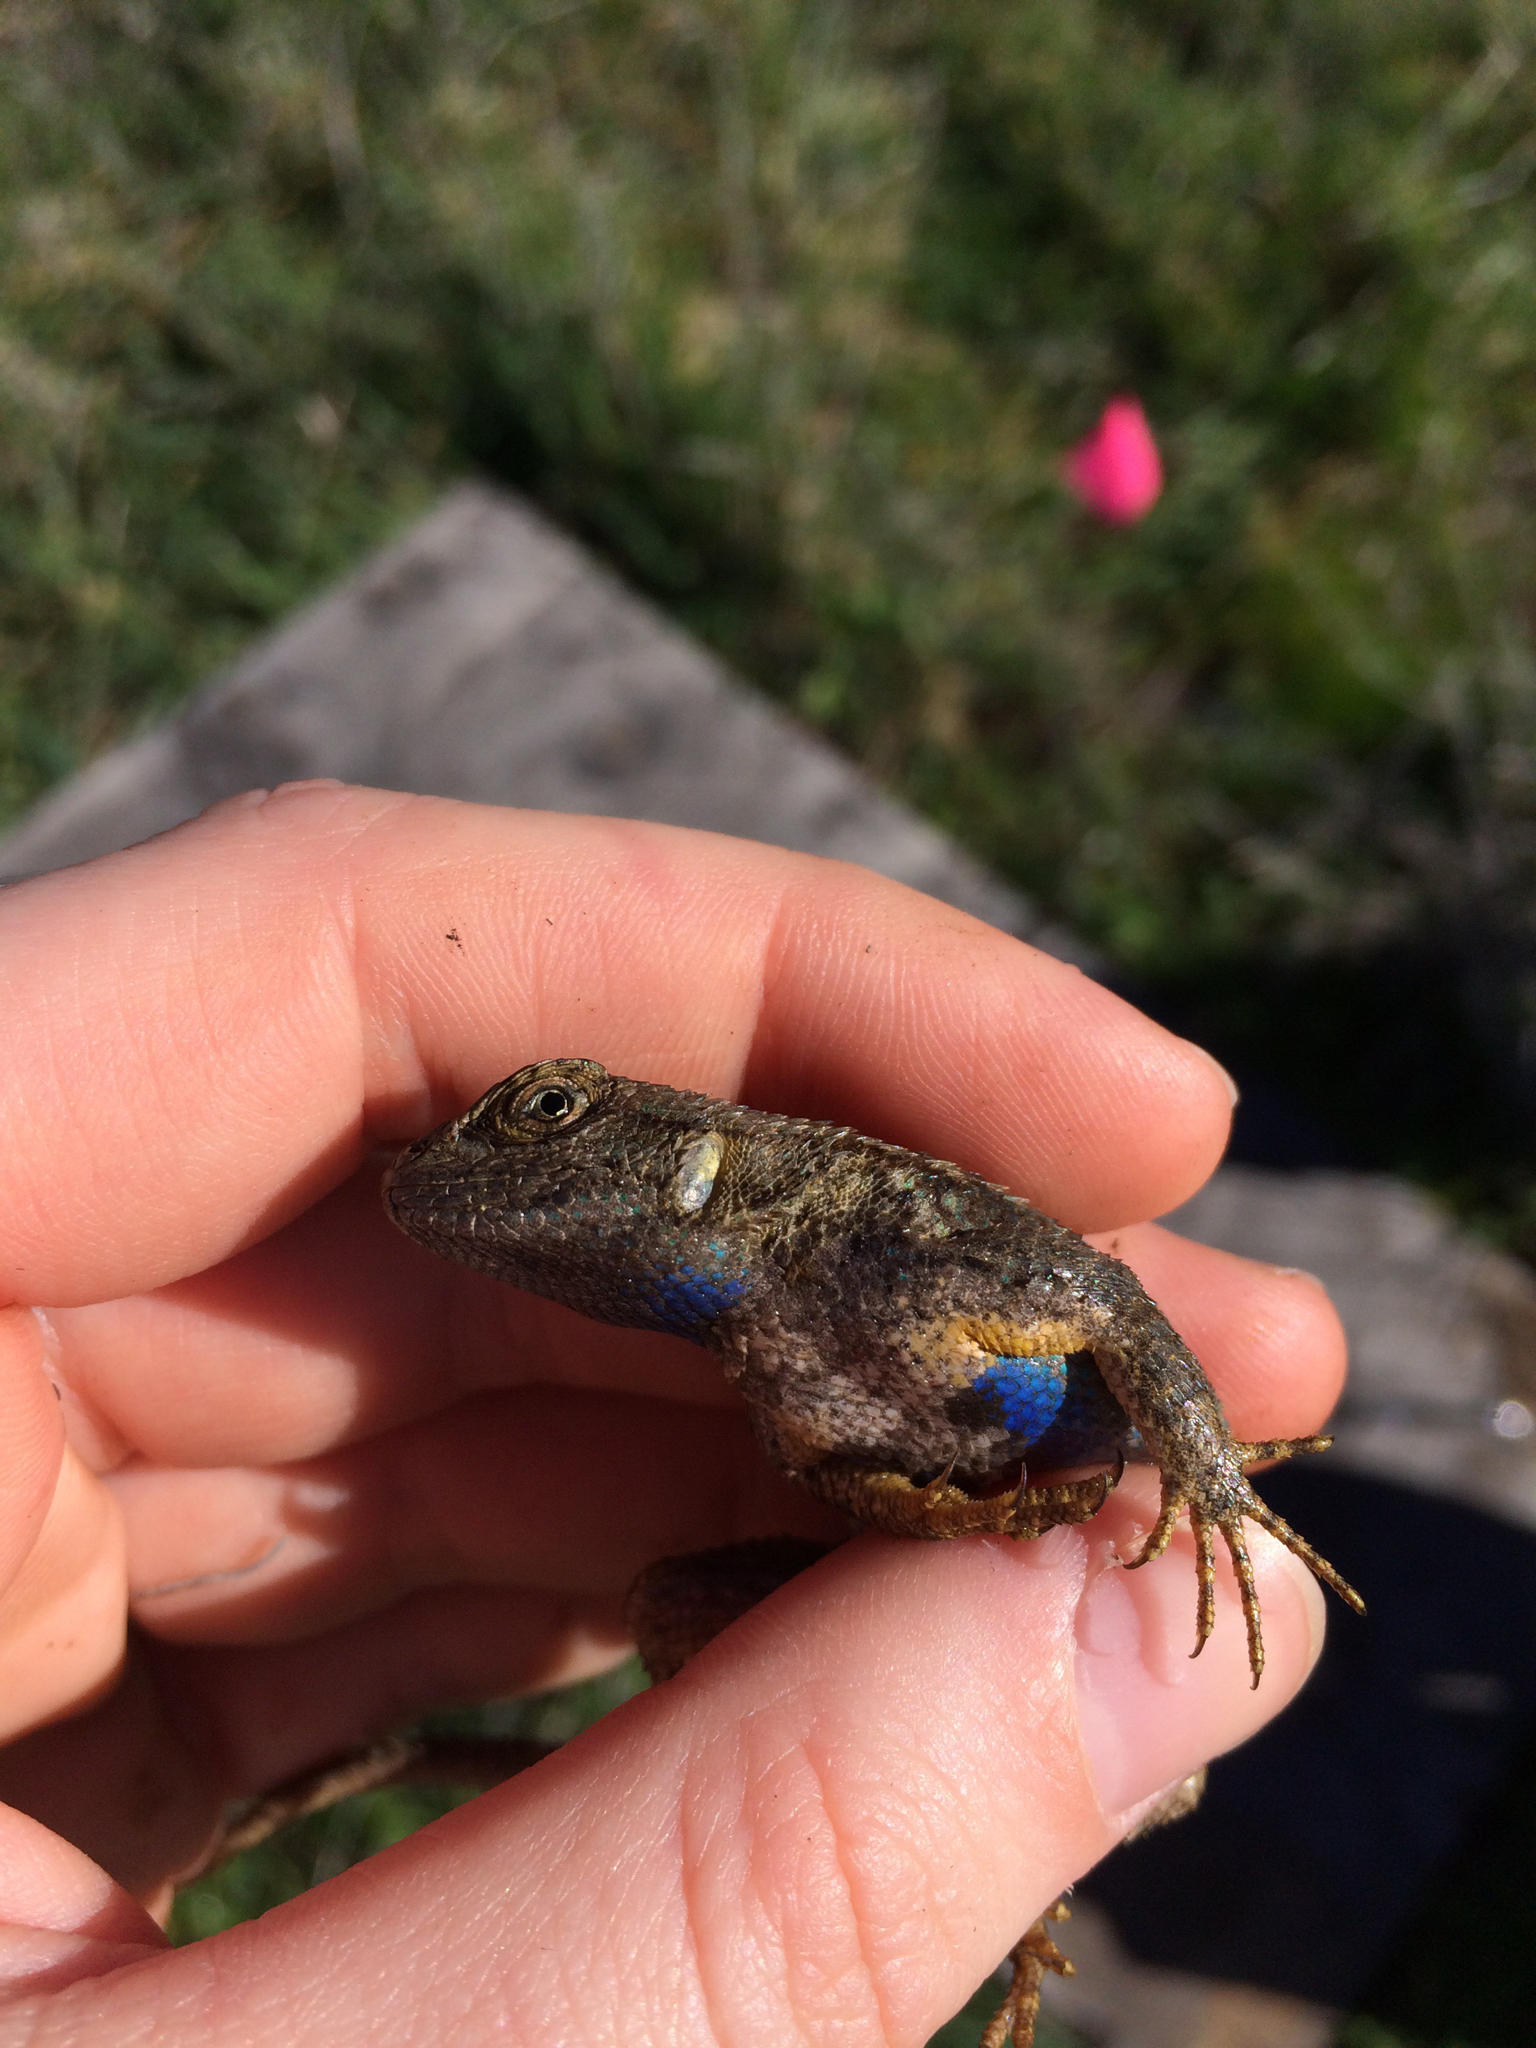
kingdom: Animalia
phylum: Chordata
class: Squamata
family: Phrynosomatidae
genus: Sceloporus
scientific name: Sceloporus occidentalis
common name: Western fence lizard
